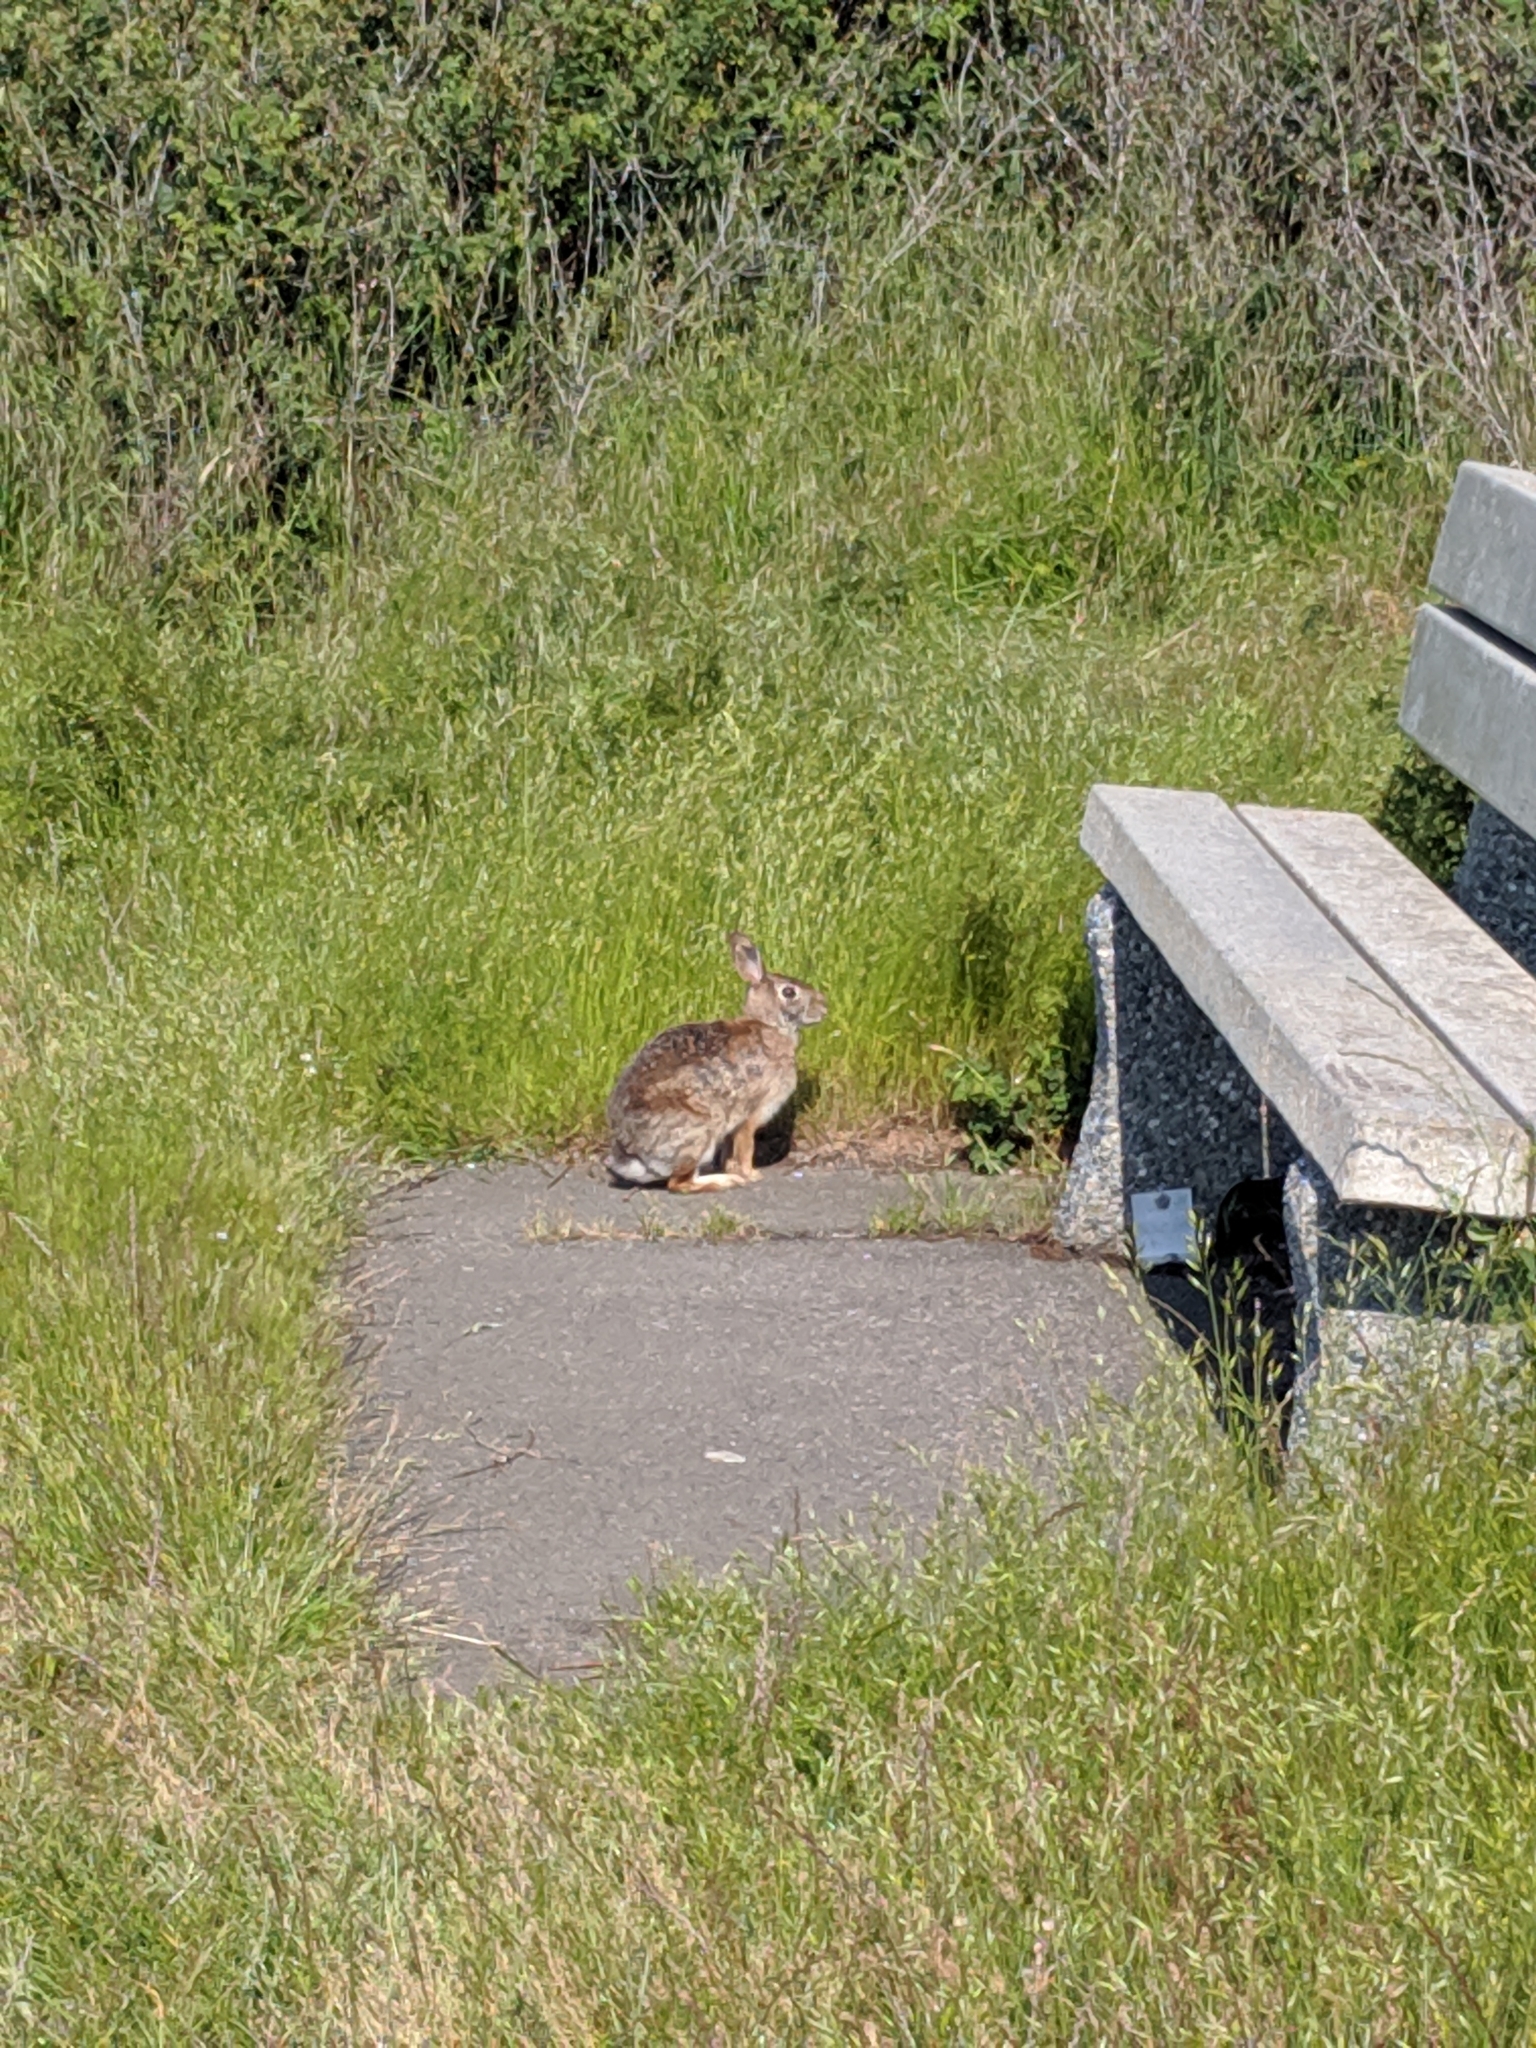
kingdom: Animalia
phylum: Chordata
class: Mammalia
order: Lagomorpha
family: Leporidae
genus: Sylvilagus
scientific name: Sylvilagus floridanus
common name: Eastern cottontail
